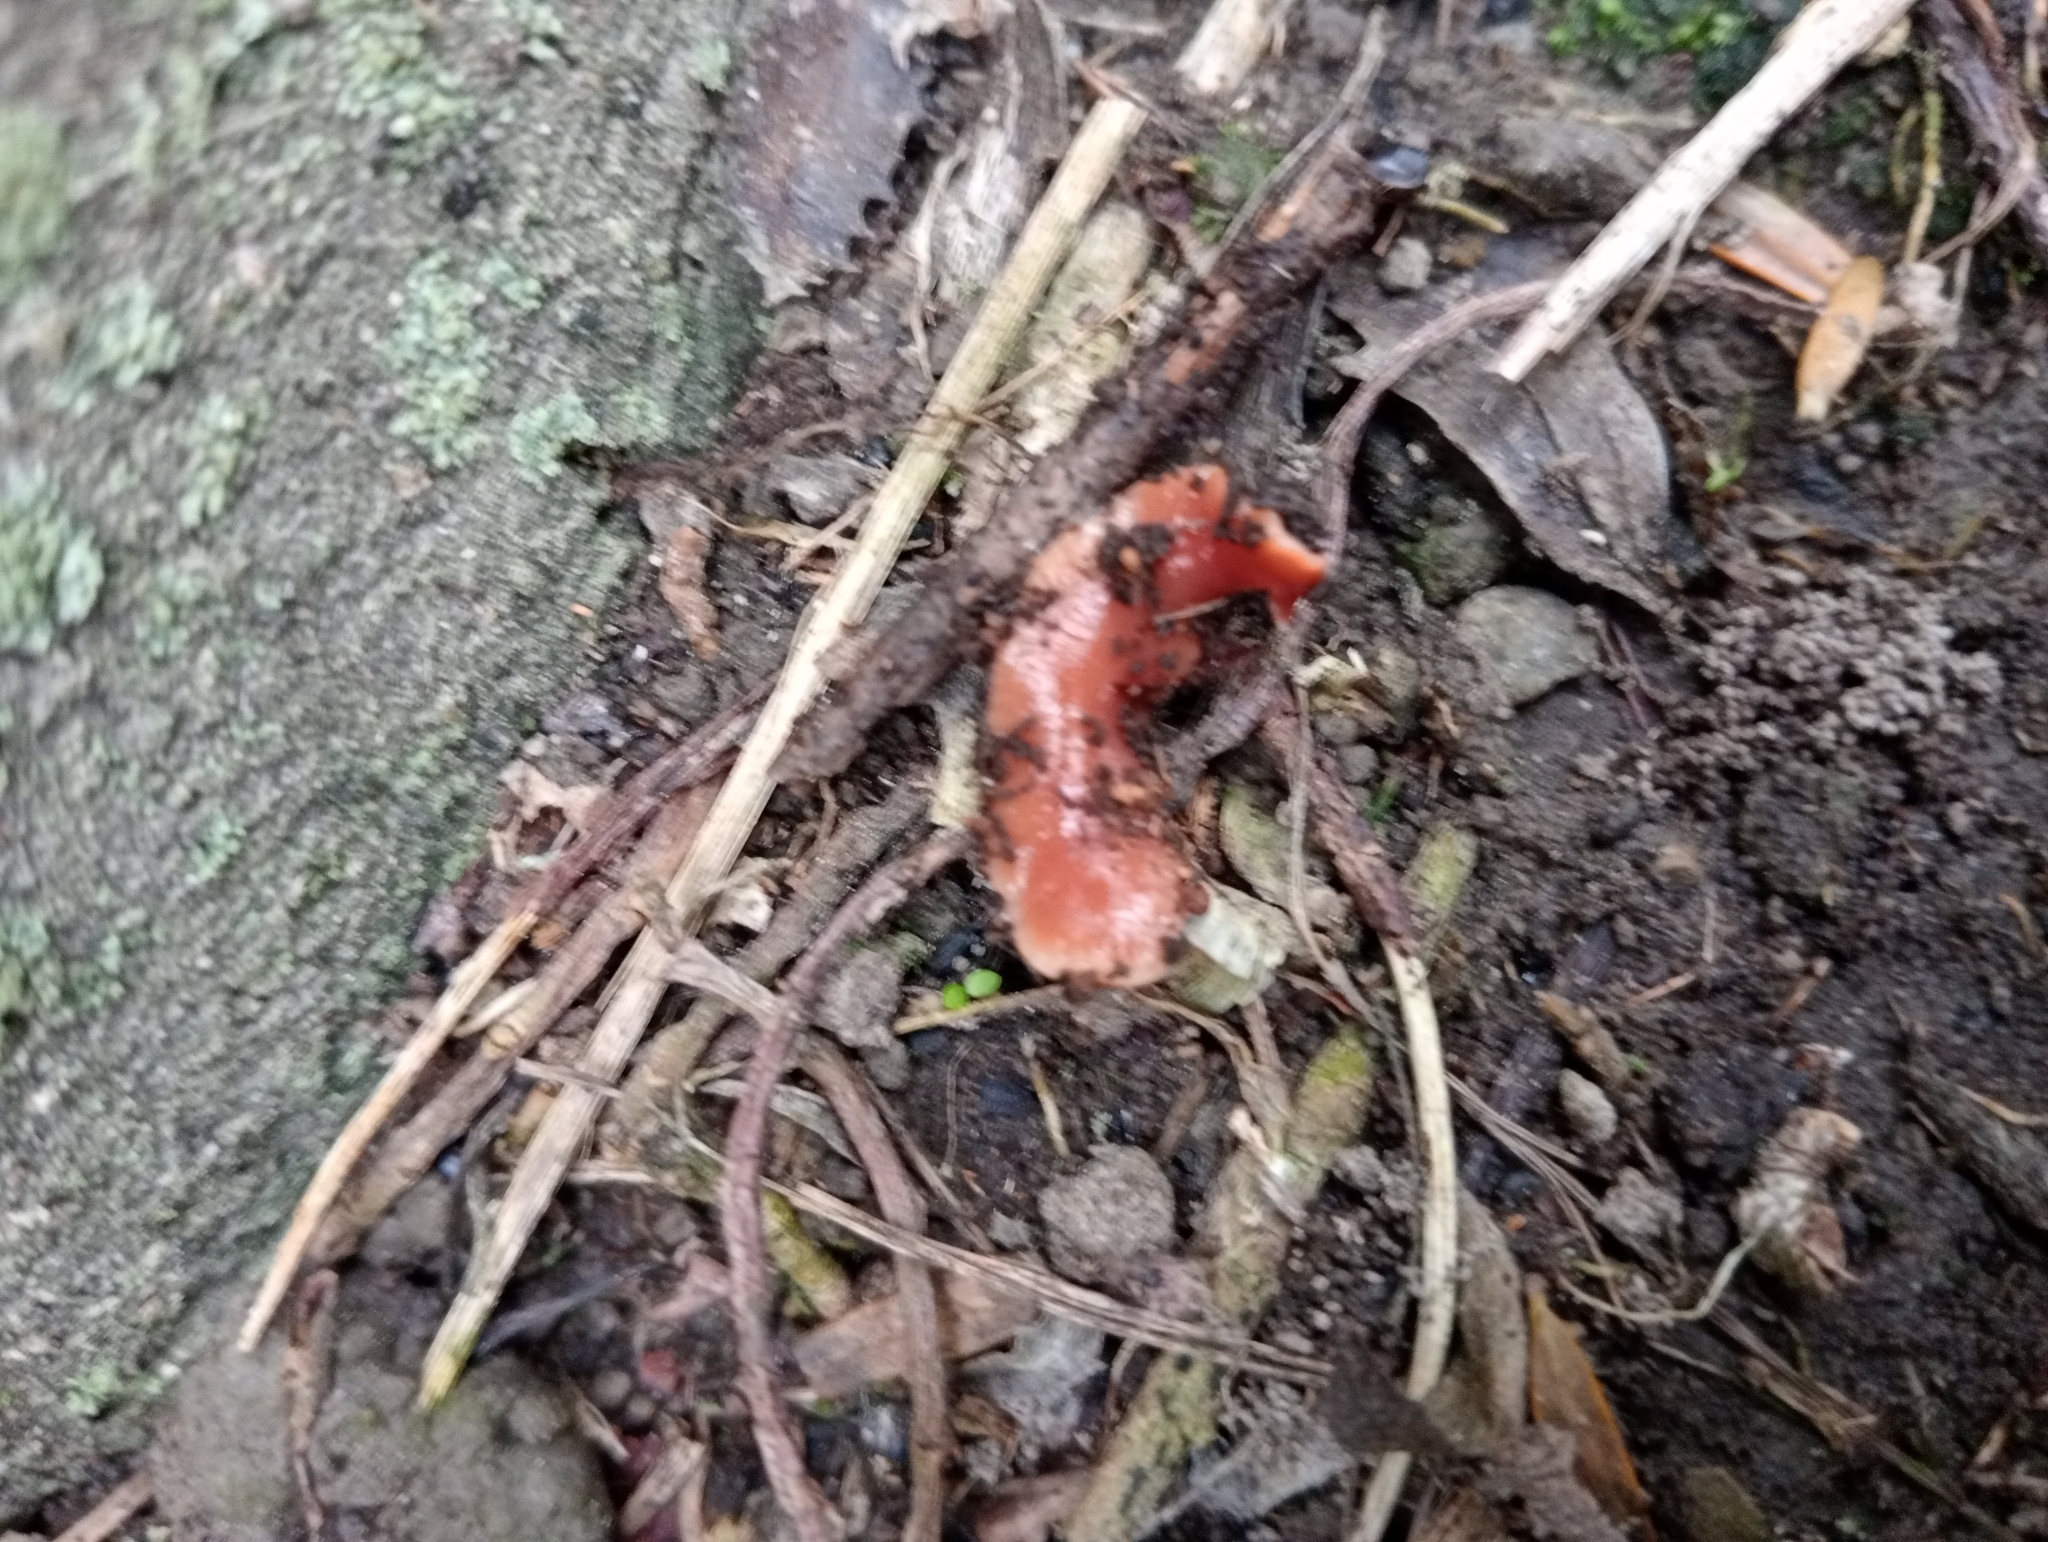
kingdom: Animalia
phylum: Platyhelminthes
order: Tricladida
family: Geoplanidae
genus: Australoplana
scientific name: Australoplana sanguinea
